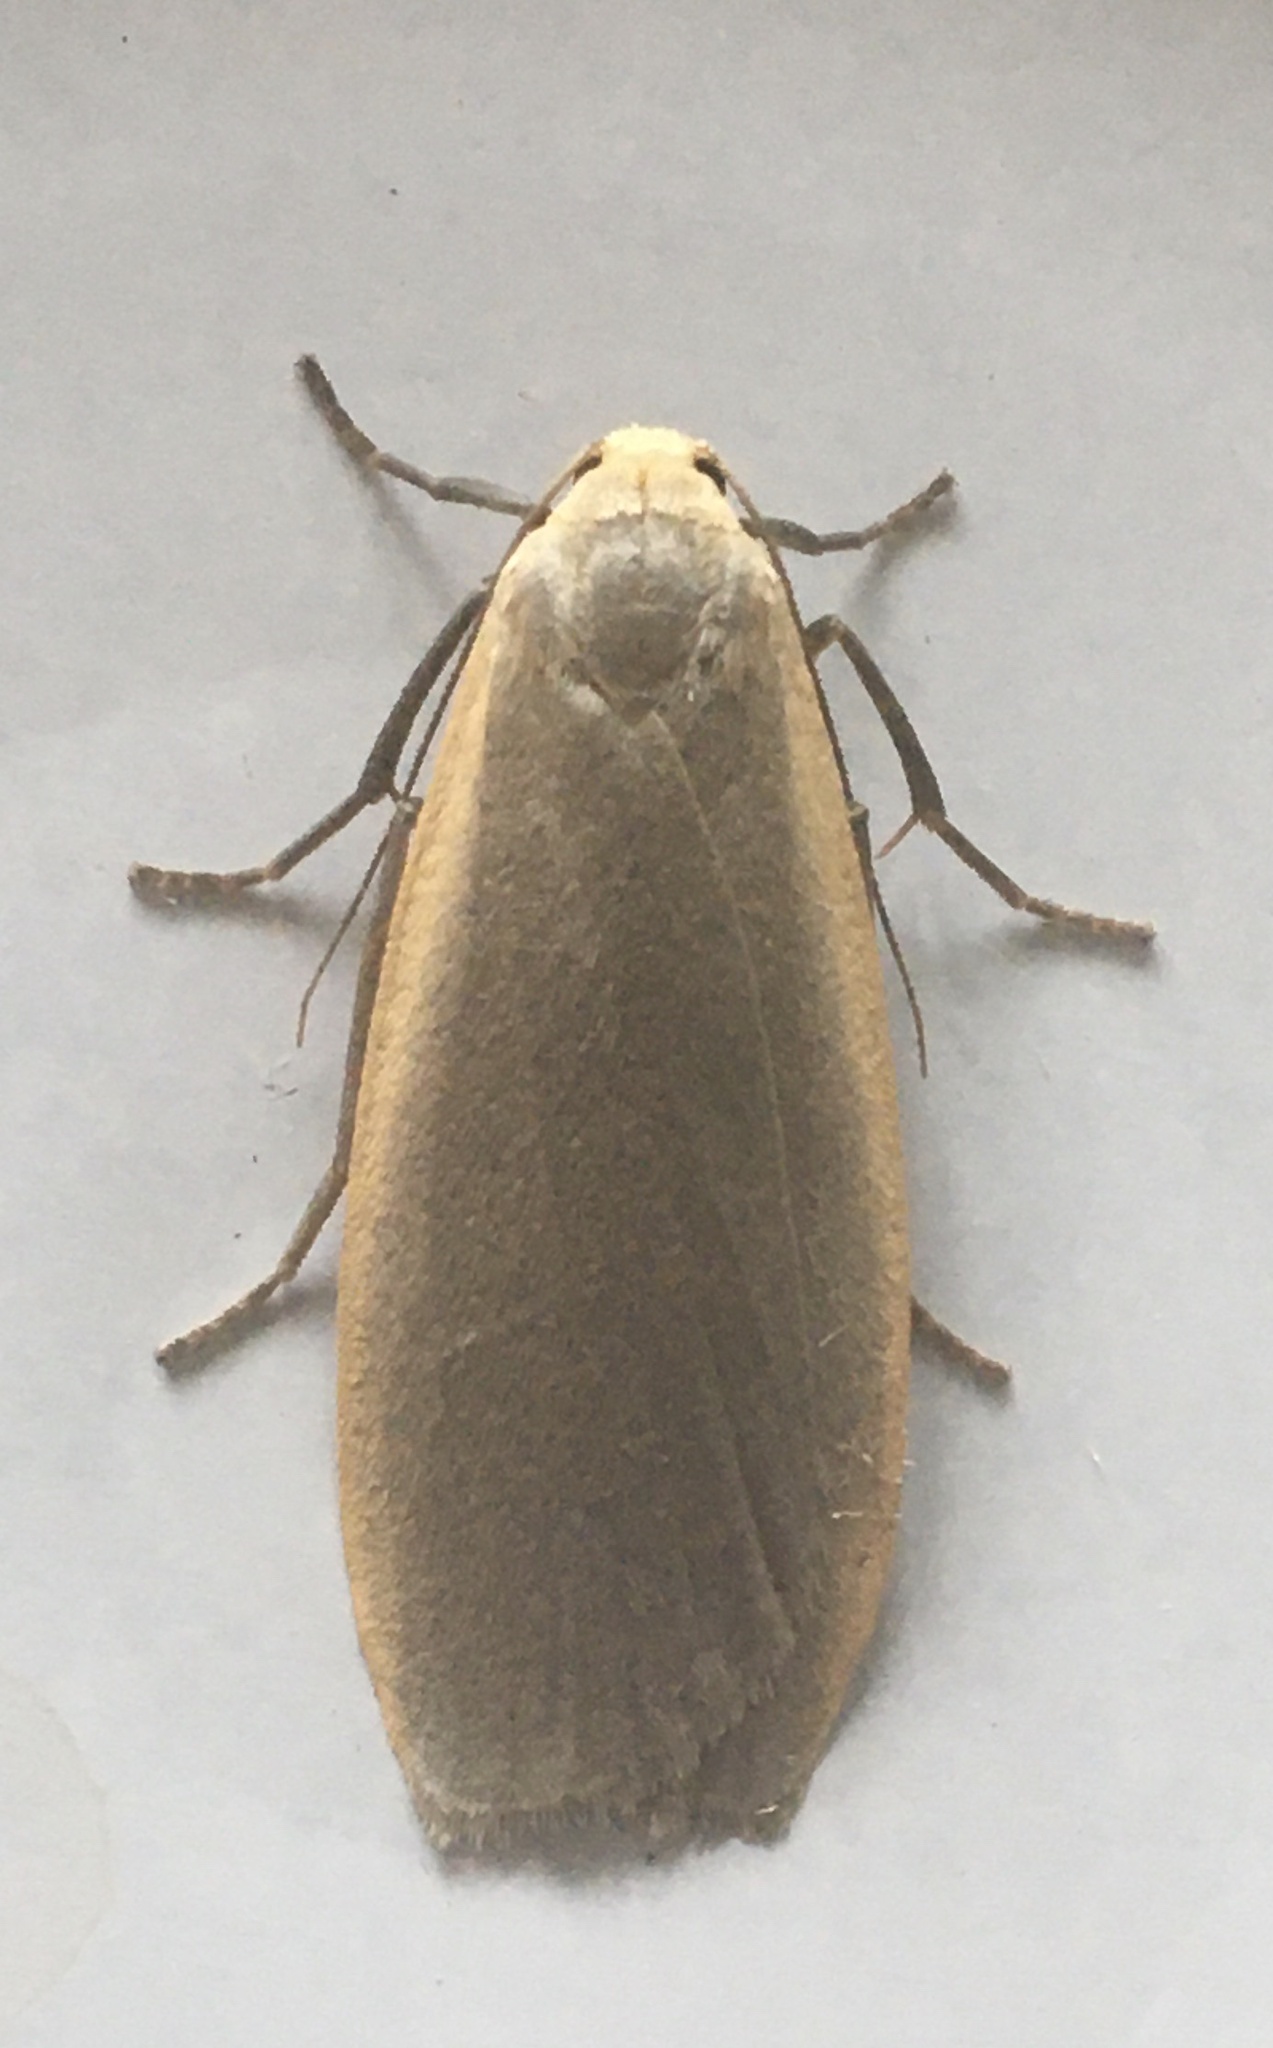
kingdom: Animalia
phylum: Arthropoda
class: Insecta
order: Lepidoptera
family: Erebidae
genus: Collita
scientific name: Collita griseola
